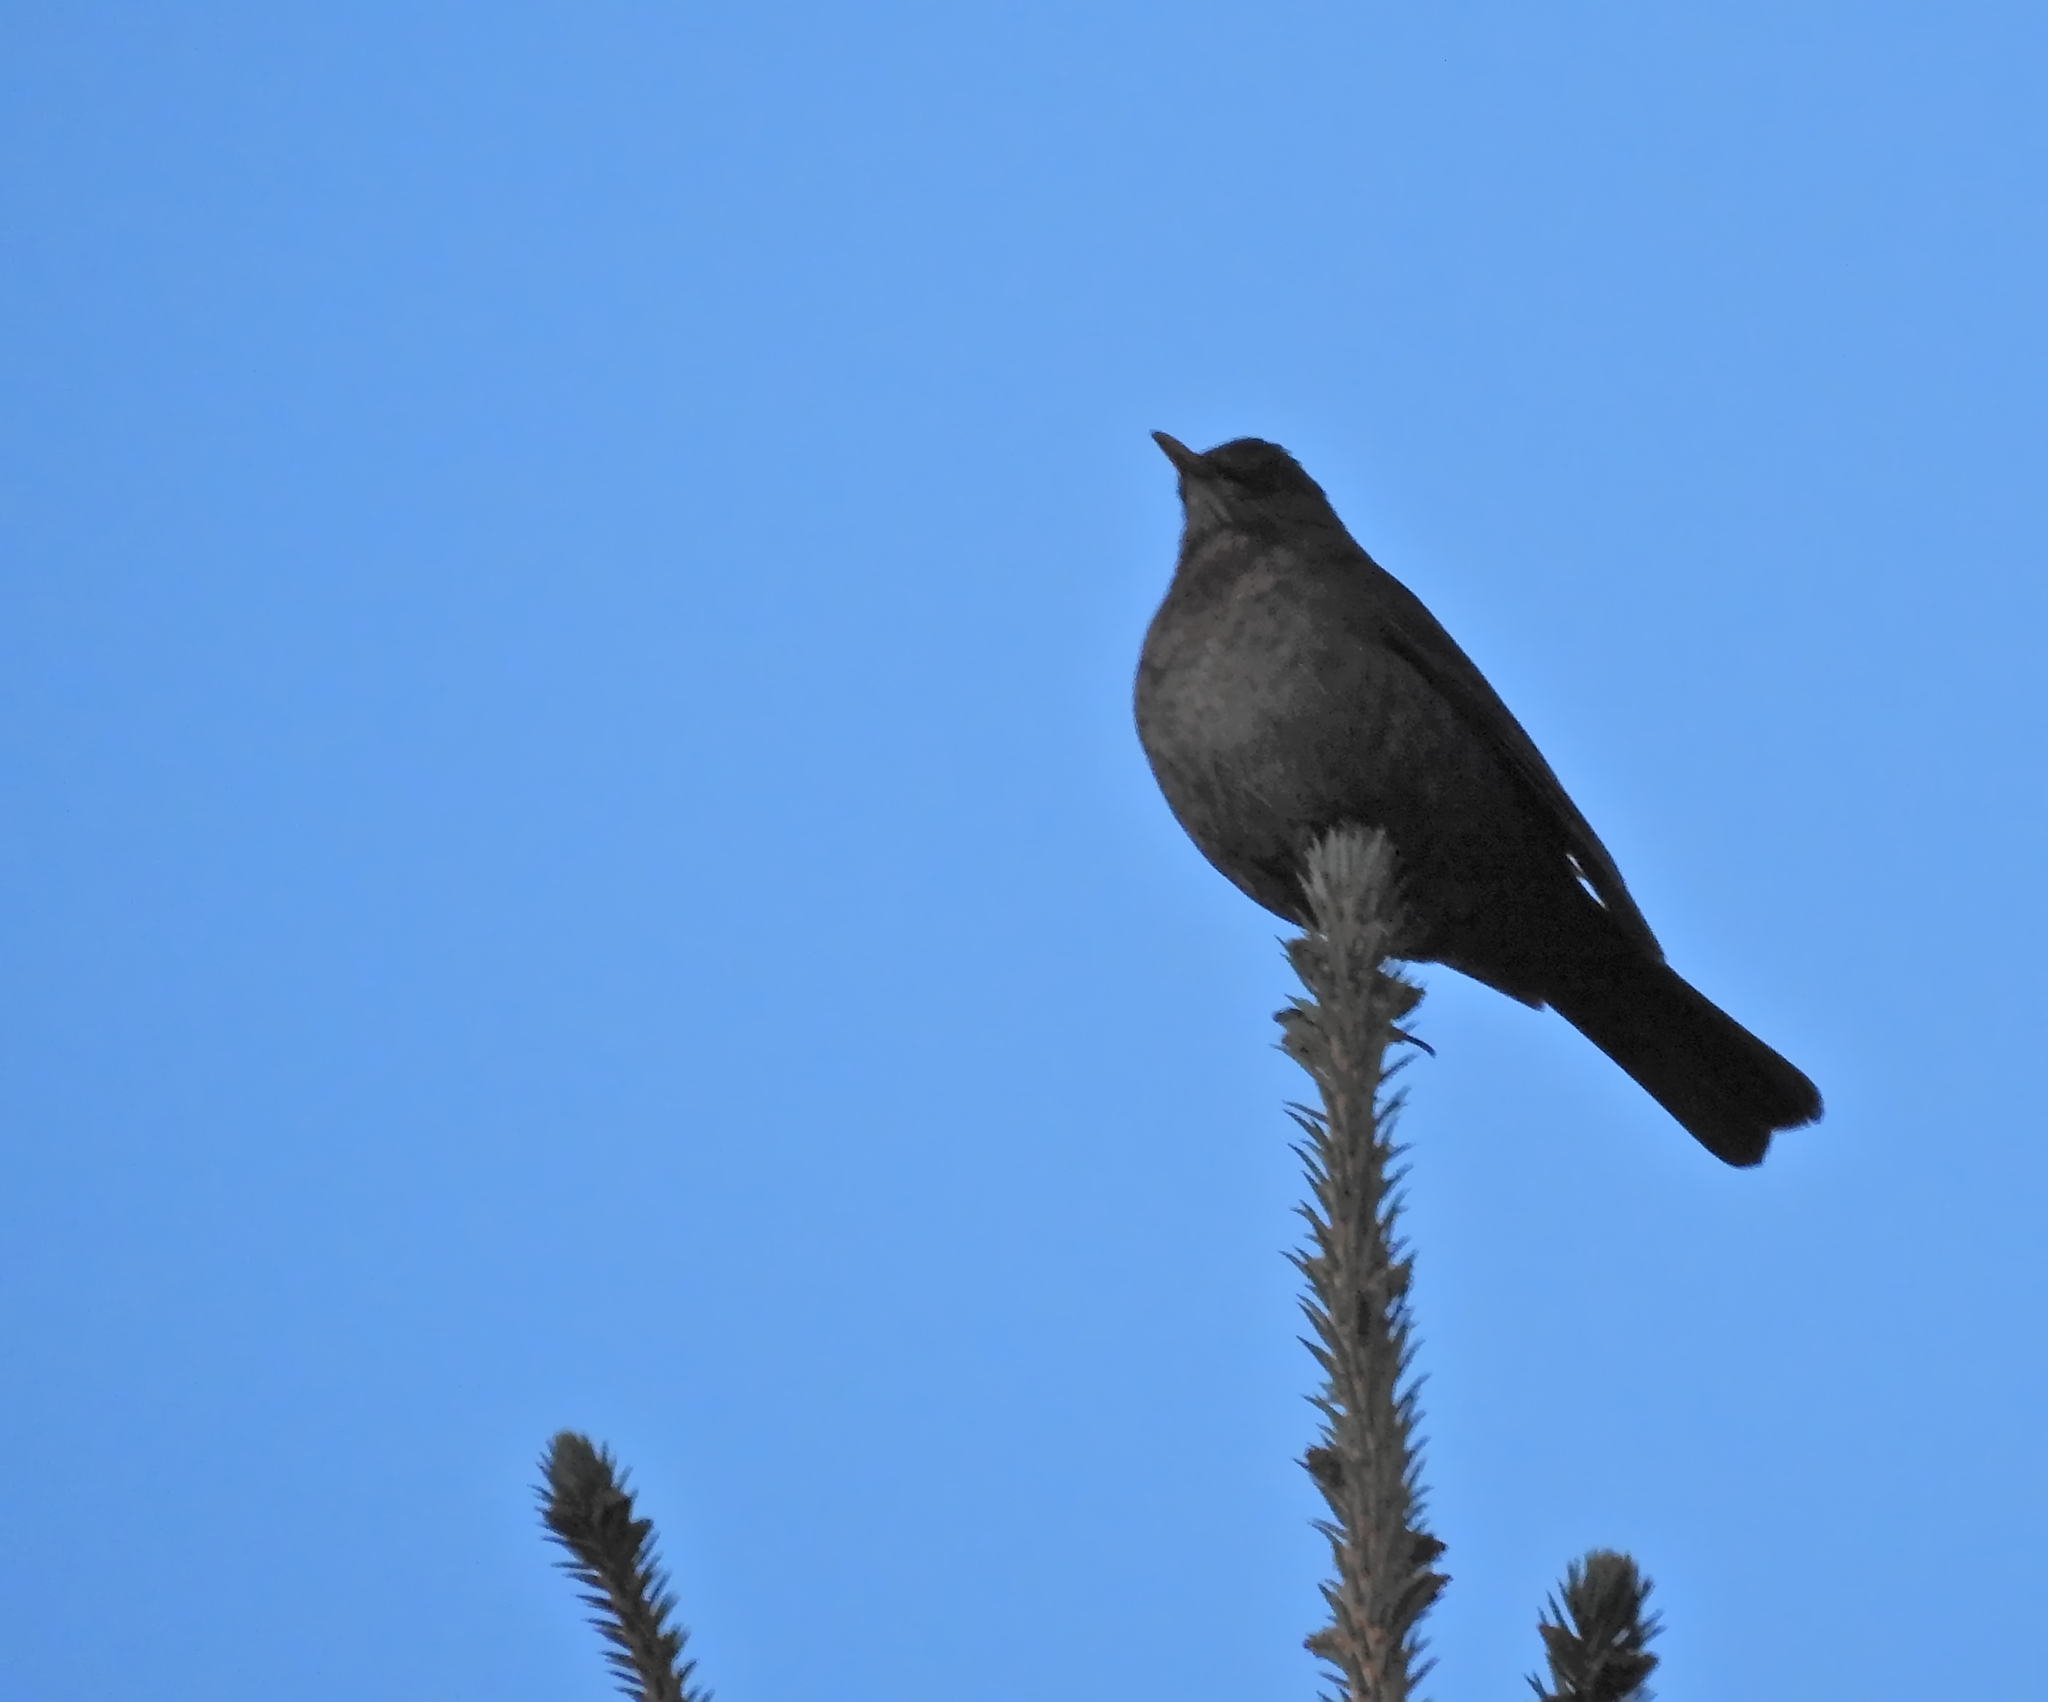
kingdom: Animalia
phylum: Chordata
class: Aves
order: Passeriformes
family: Turdidae
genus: Turdus
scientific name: Turdus merula
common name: Common blackbird
